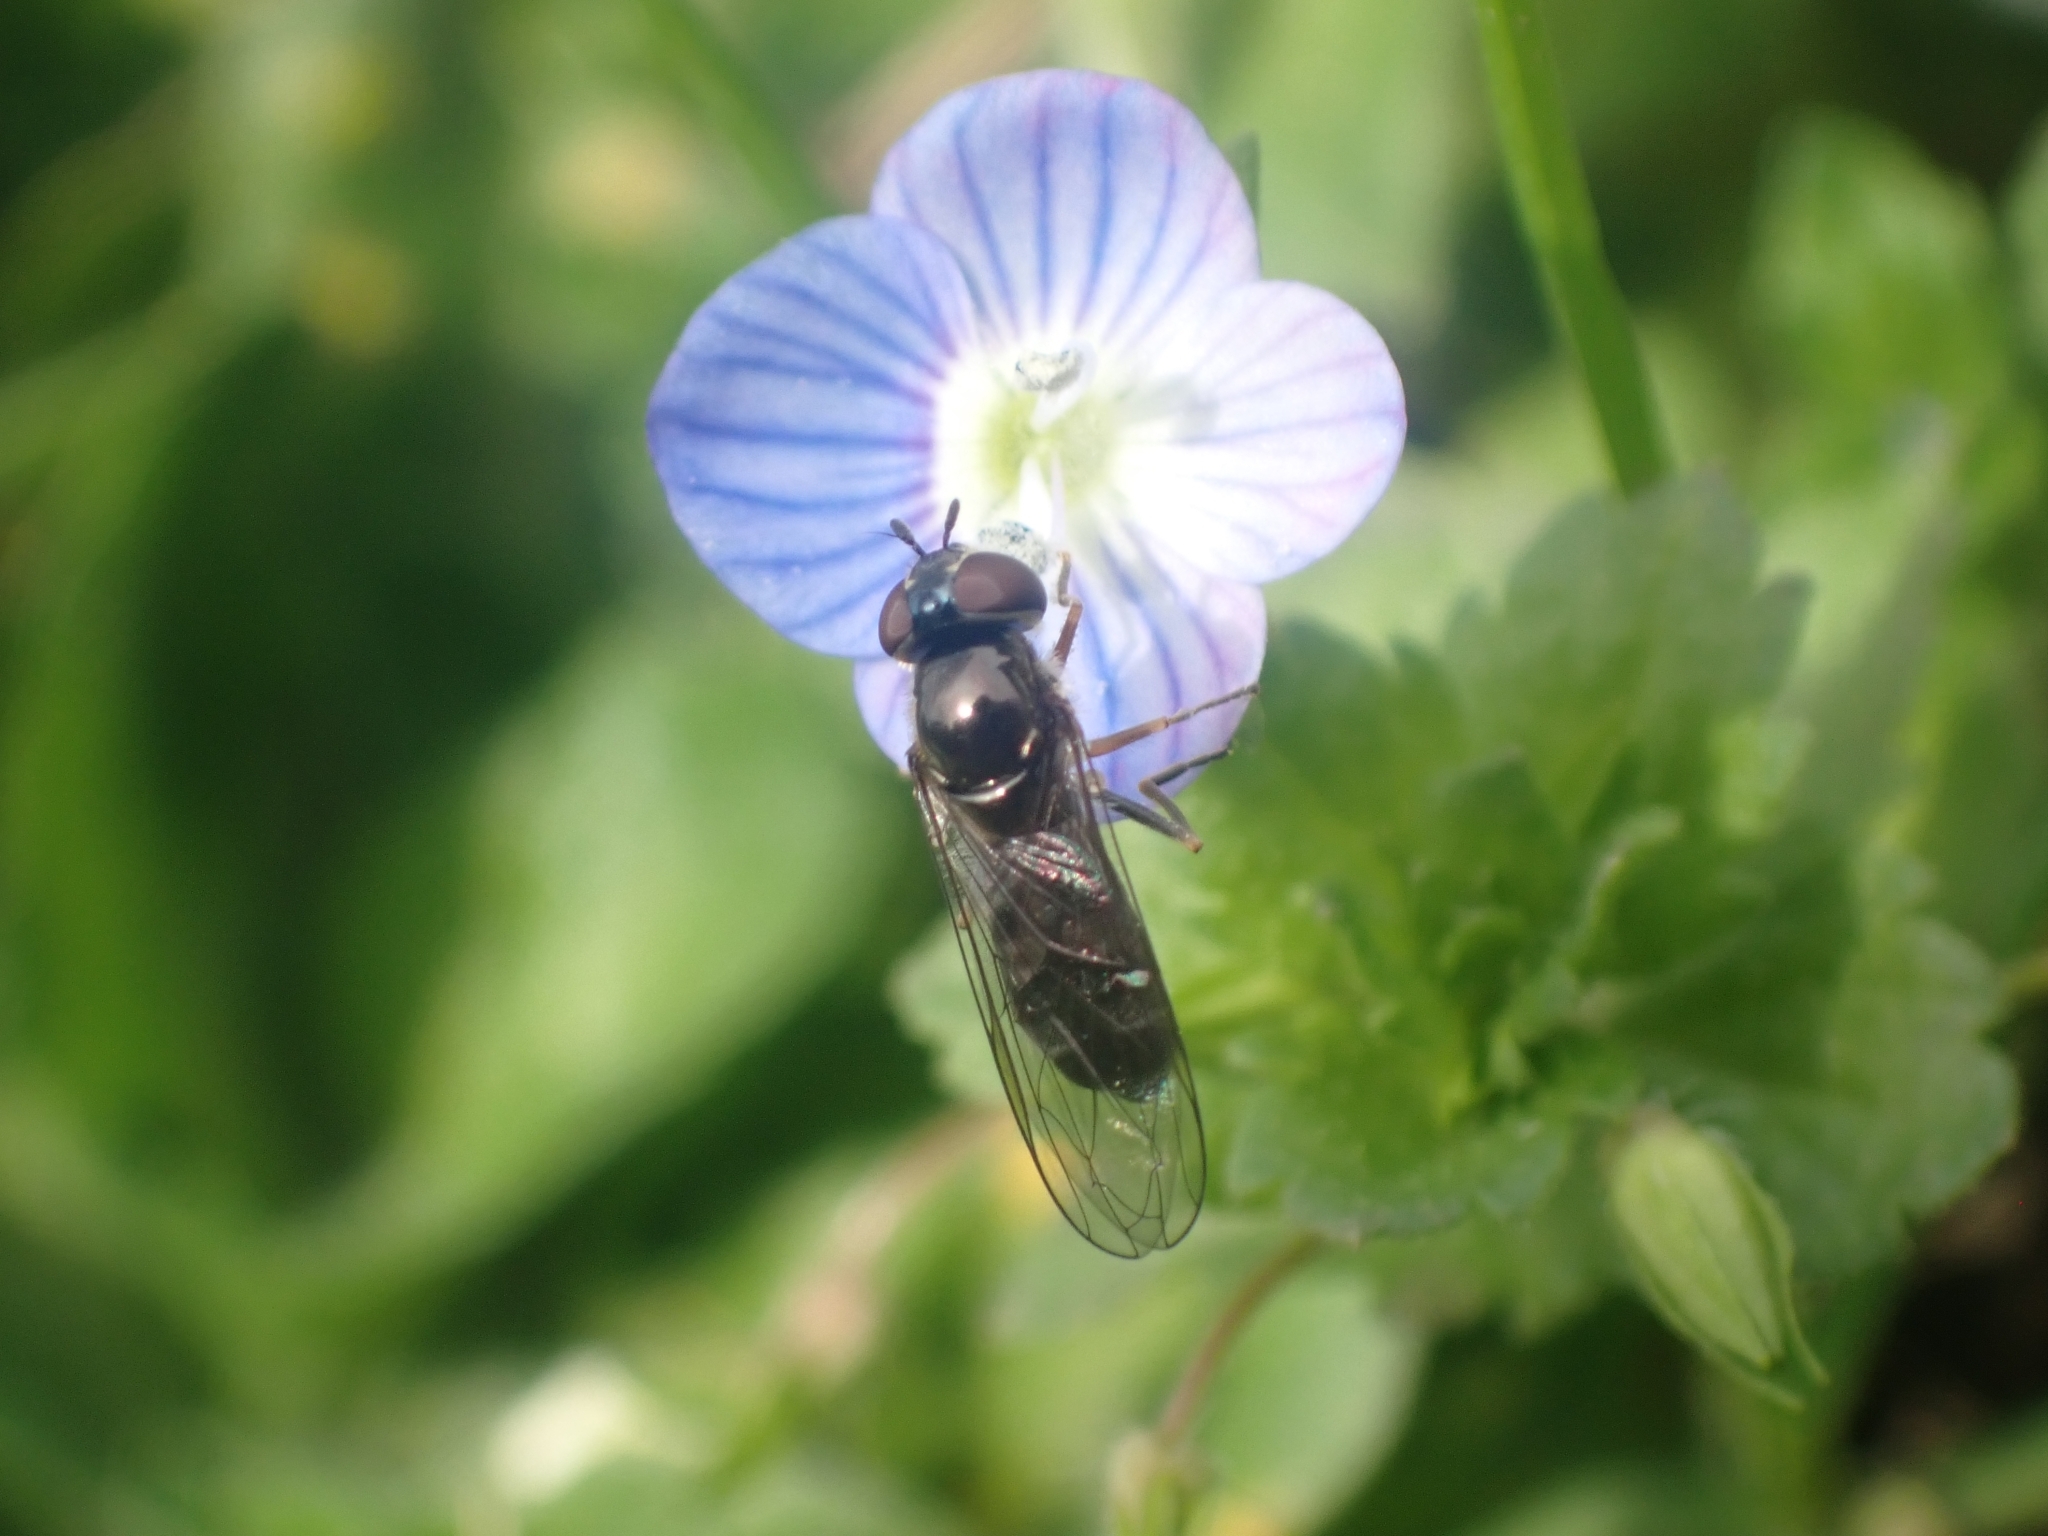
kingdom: Animalia
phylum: Arthropoda
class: Insecta
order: Diptera
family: Syrphidae
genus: Platycheirus
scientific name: Platycheirus albimanus
